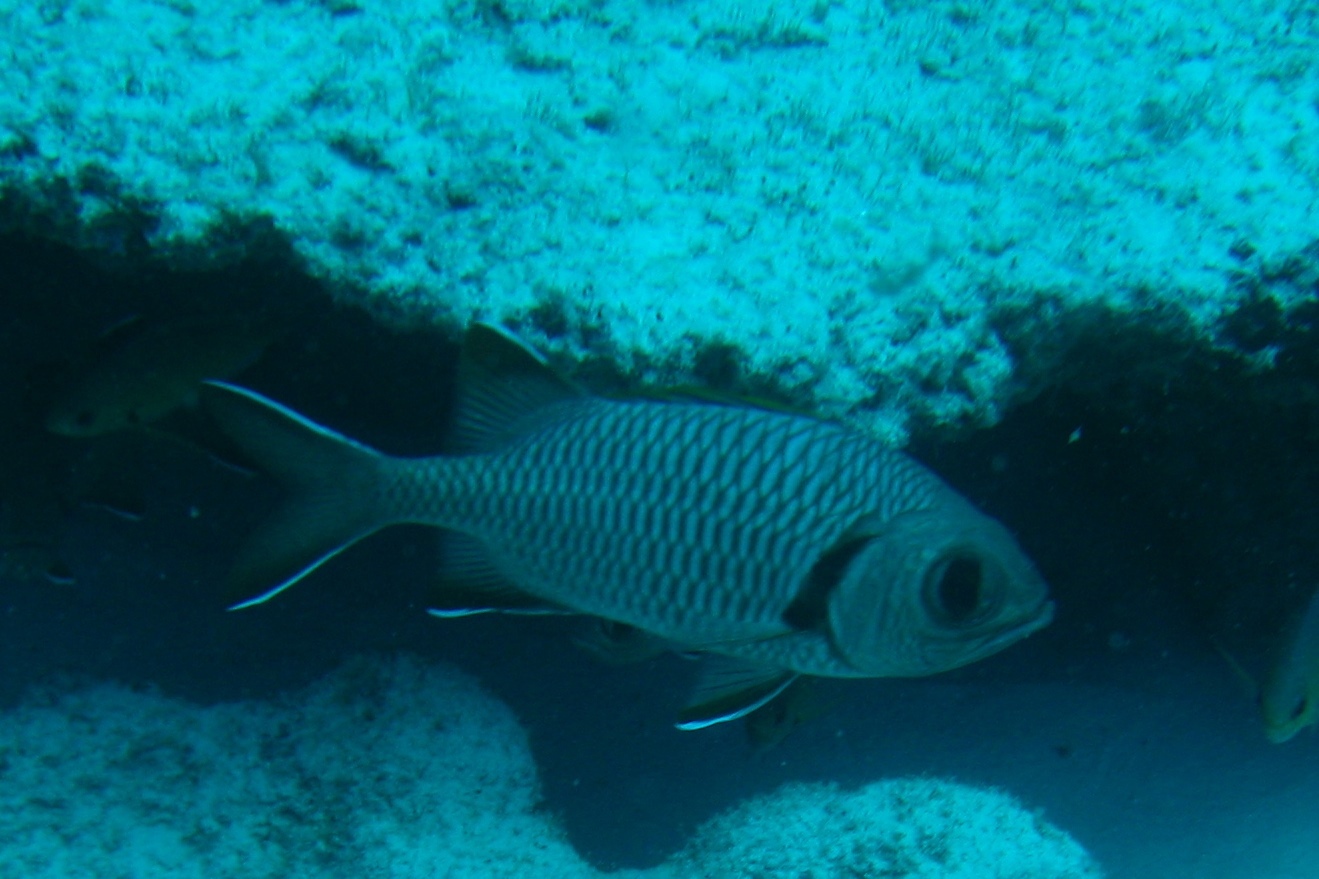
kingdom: Animalia
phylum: Chordata
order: Beryciformes
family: Holocentridae
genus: Myripristis
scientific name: Myripristis berndti
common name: Bigscale soldierfish
